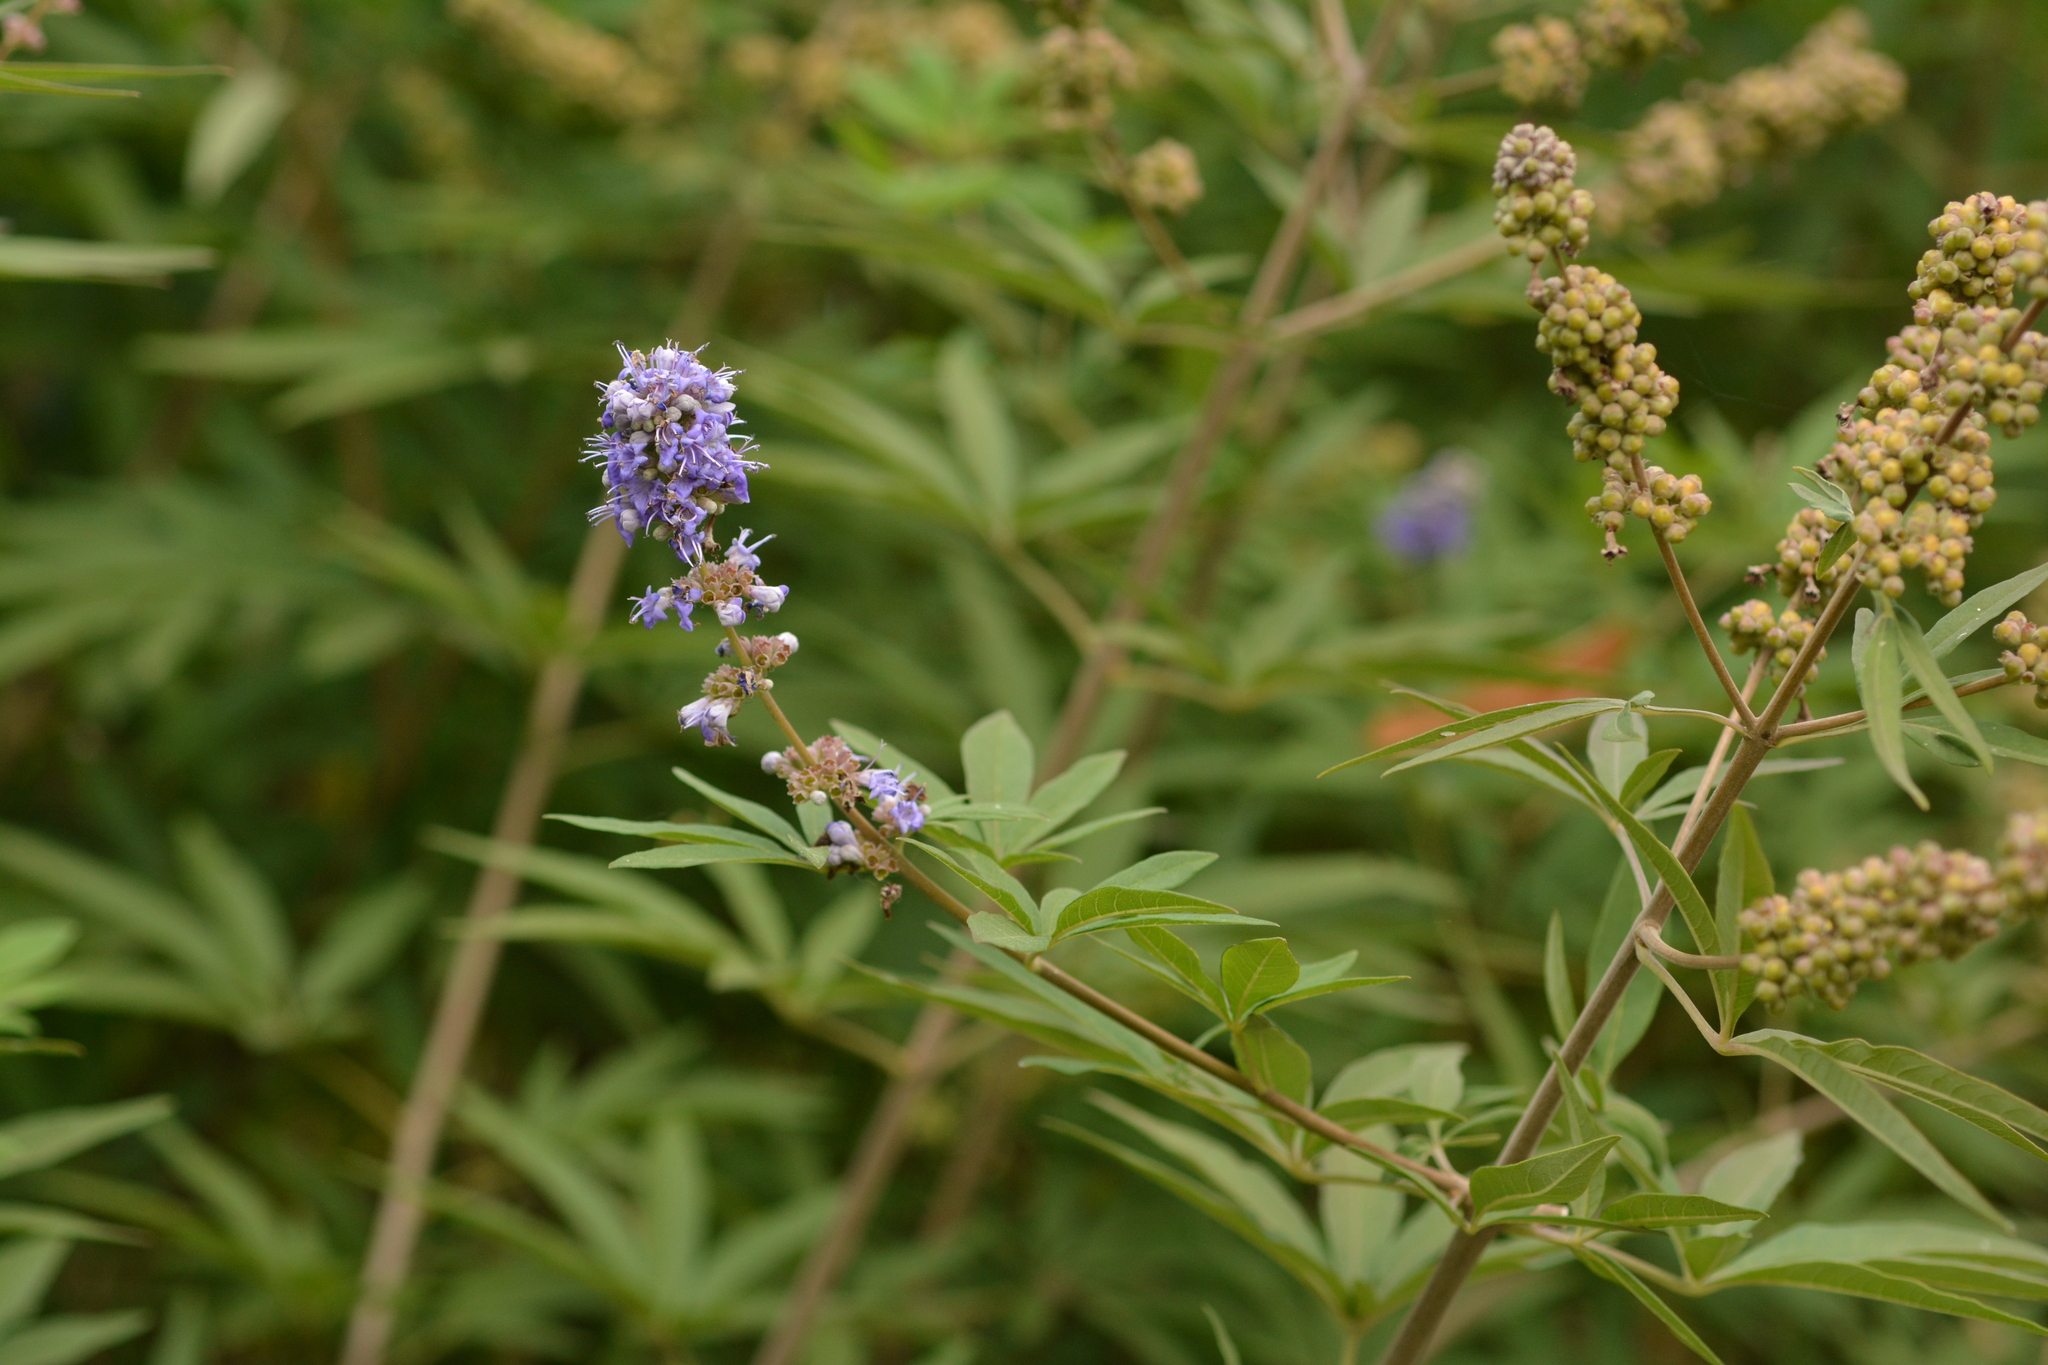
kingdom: Plantae
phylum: Tracheophyta
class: Magnoliopsida
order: Lamiales
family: Lamiaceae
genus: Vitex
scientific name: Vitex agnus-castus
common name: Chasteberry
